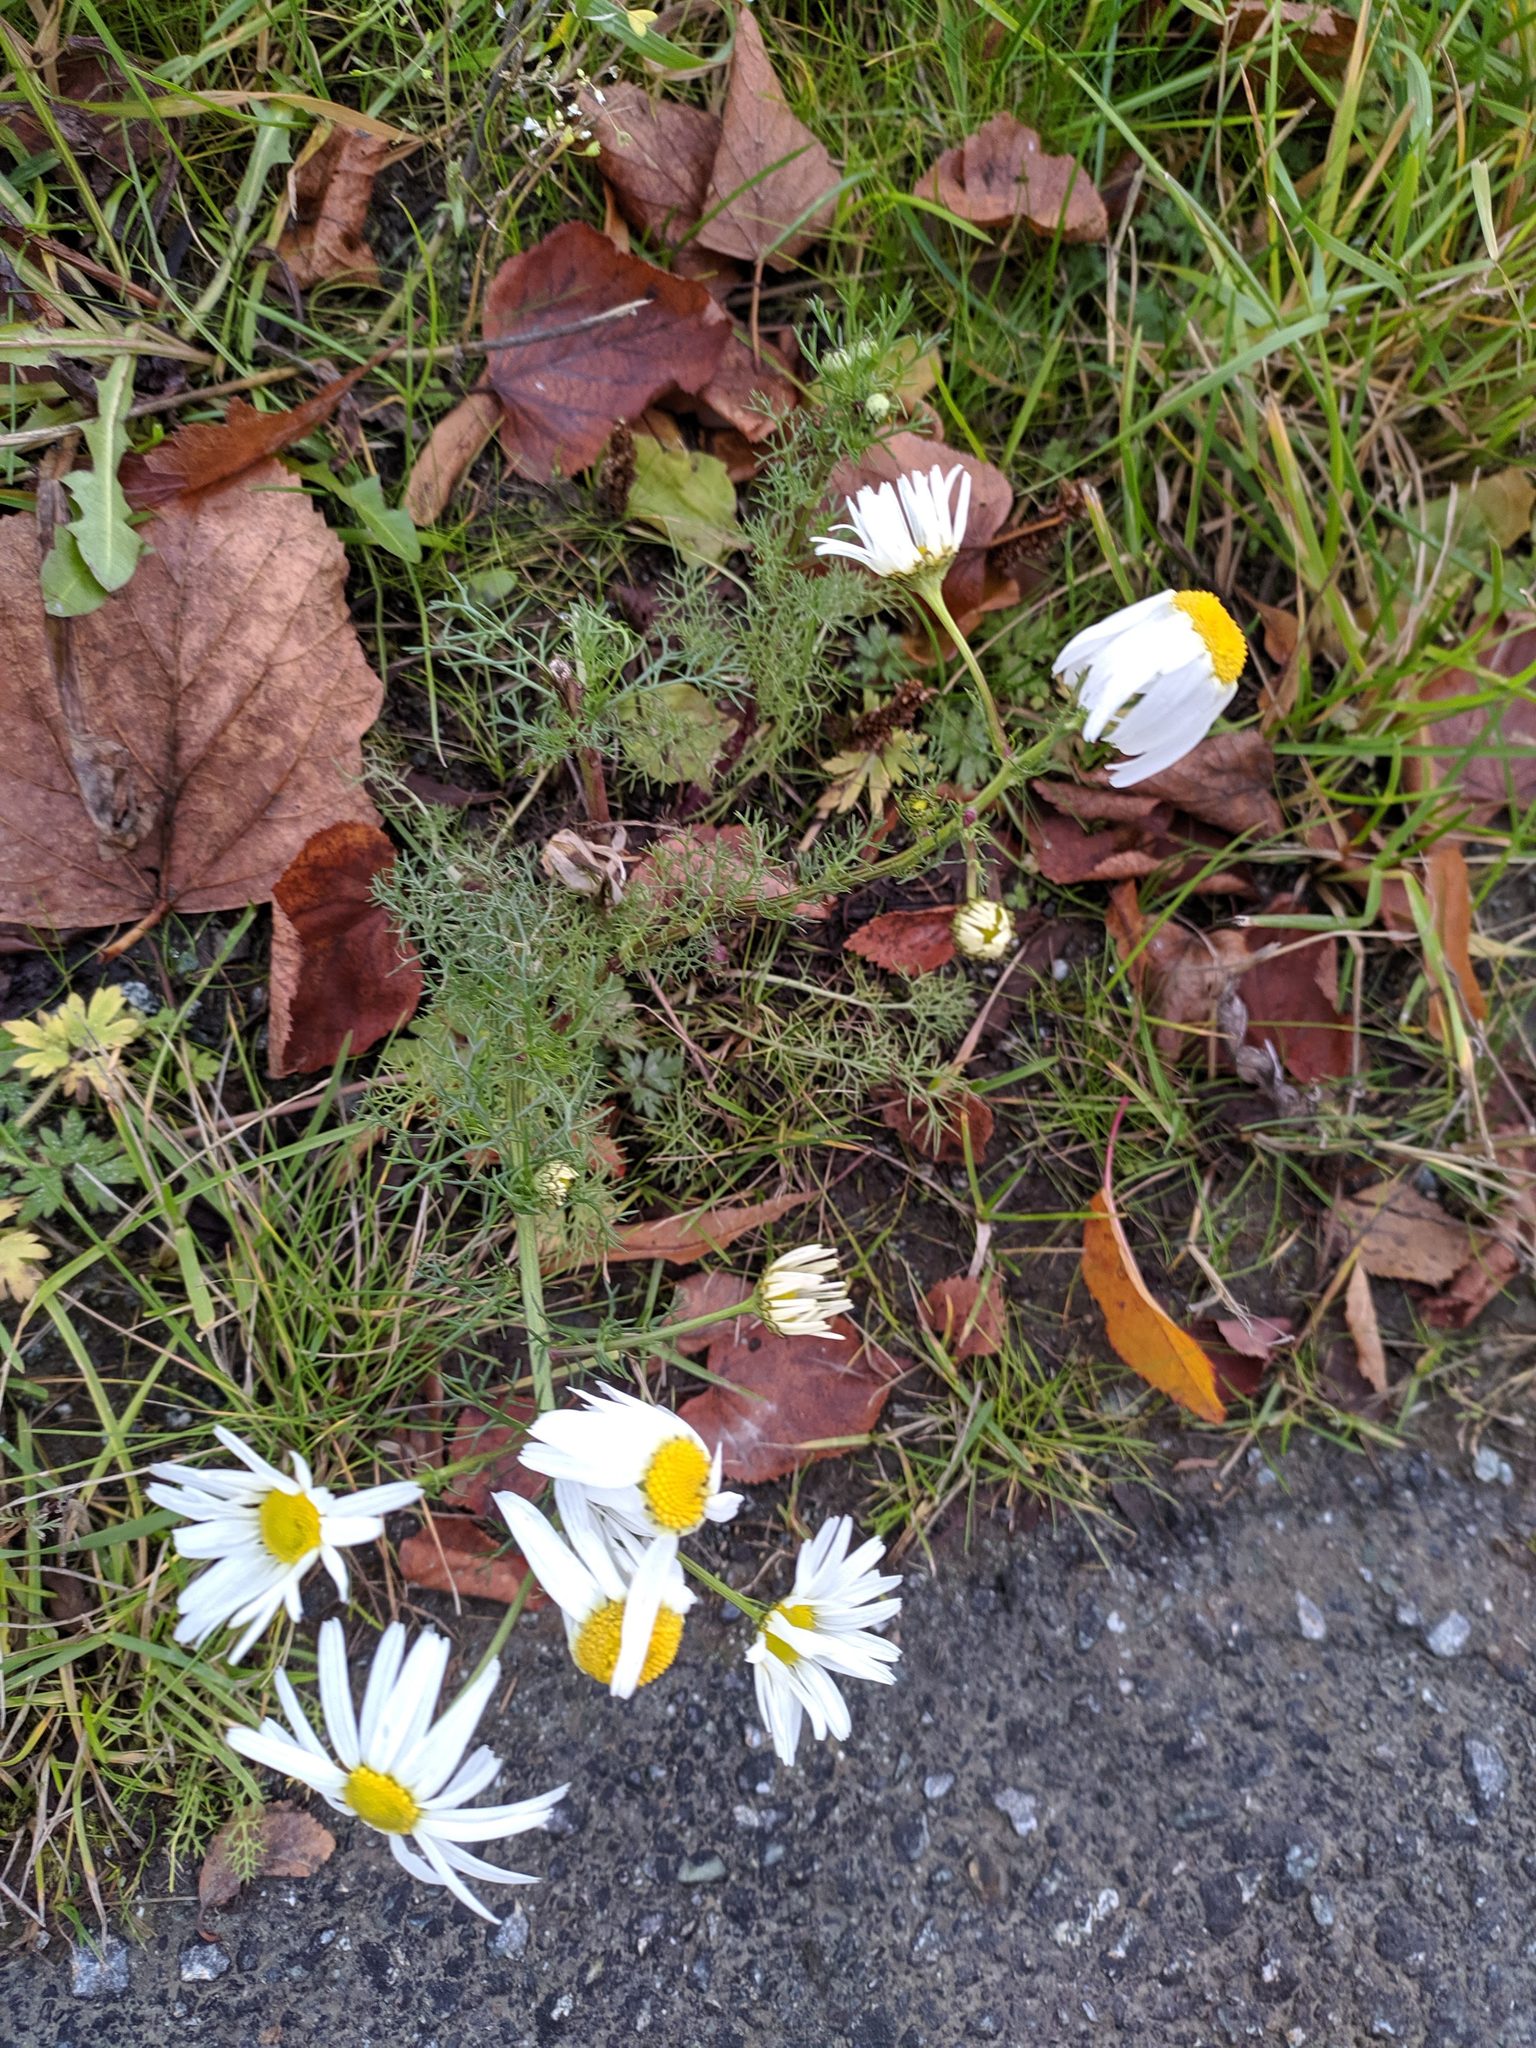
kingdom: Plantae
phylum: Tracheophyta
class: Magnoliopsida
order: Asterales
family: Asteraceae
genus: Tripleurospermum
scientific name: Tripleurospermum inodorum
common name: Scentless mayweed
